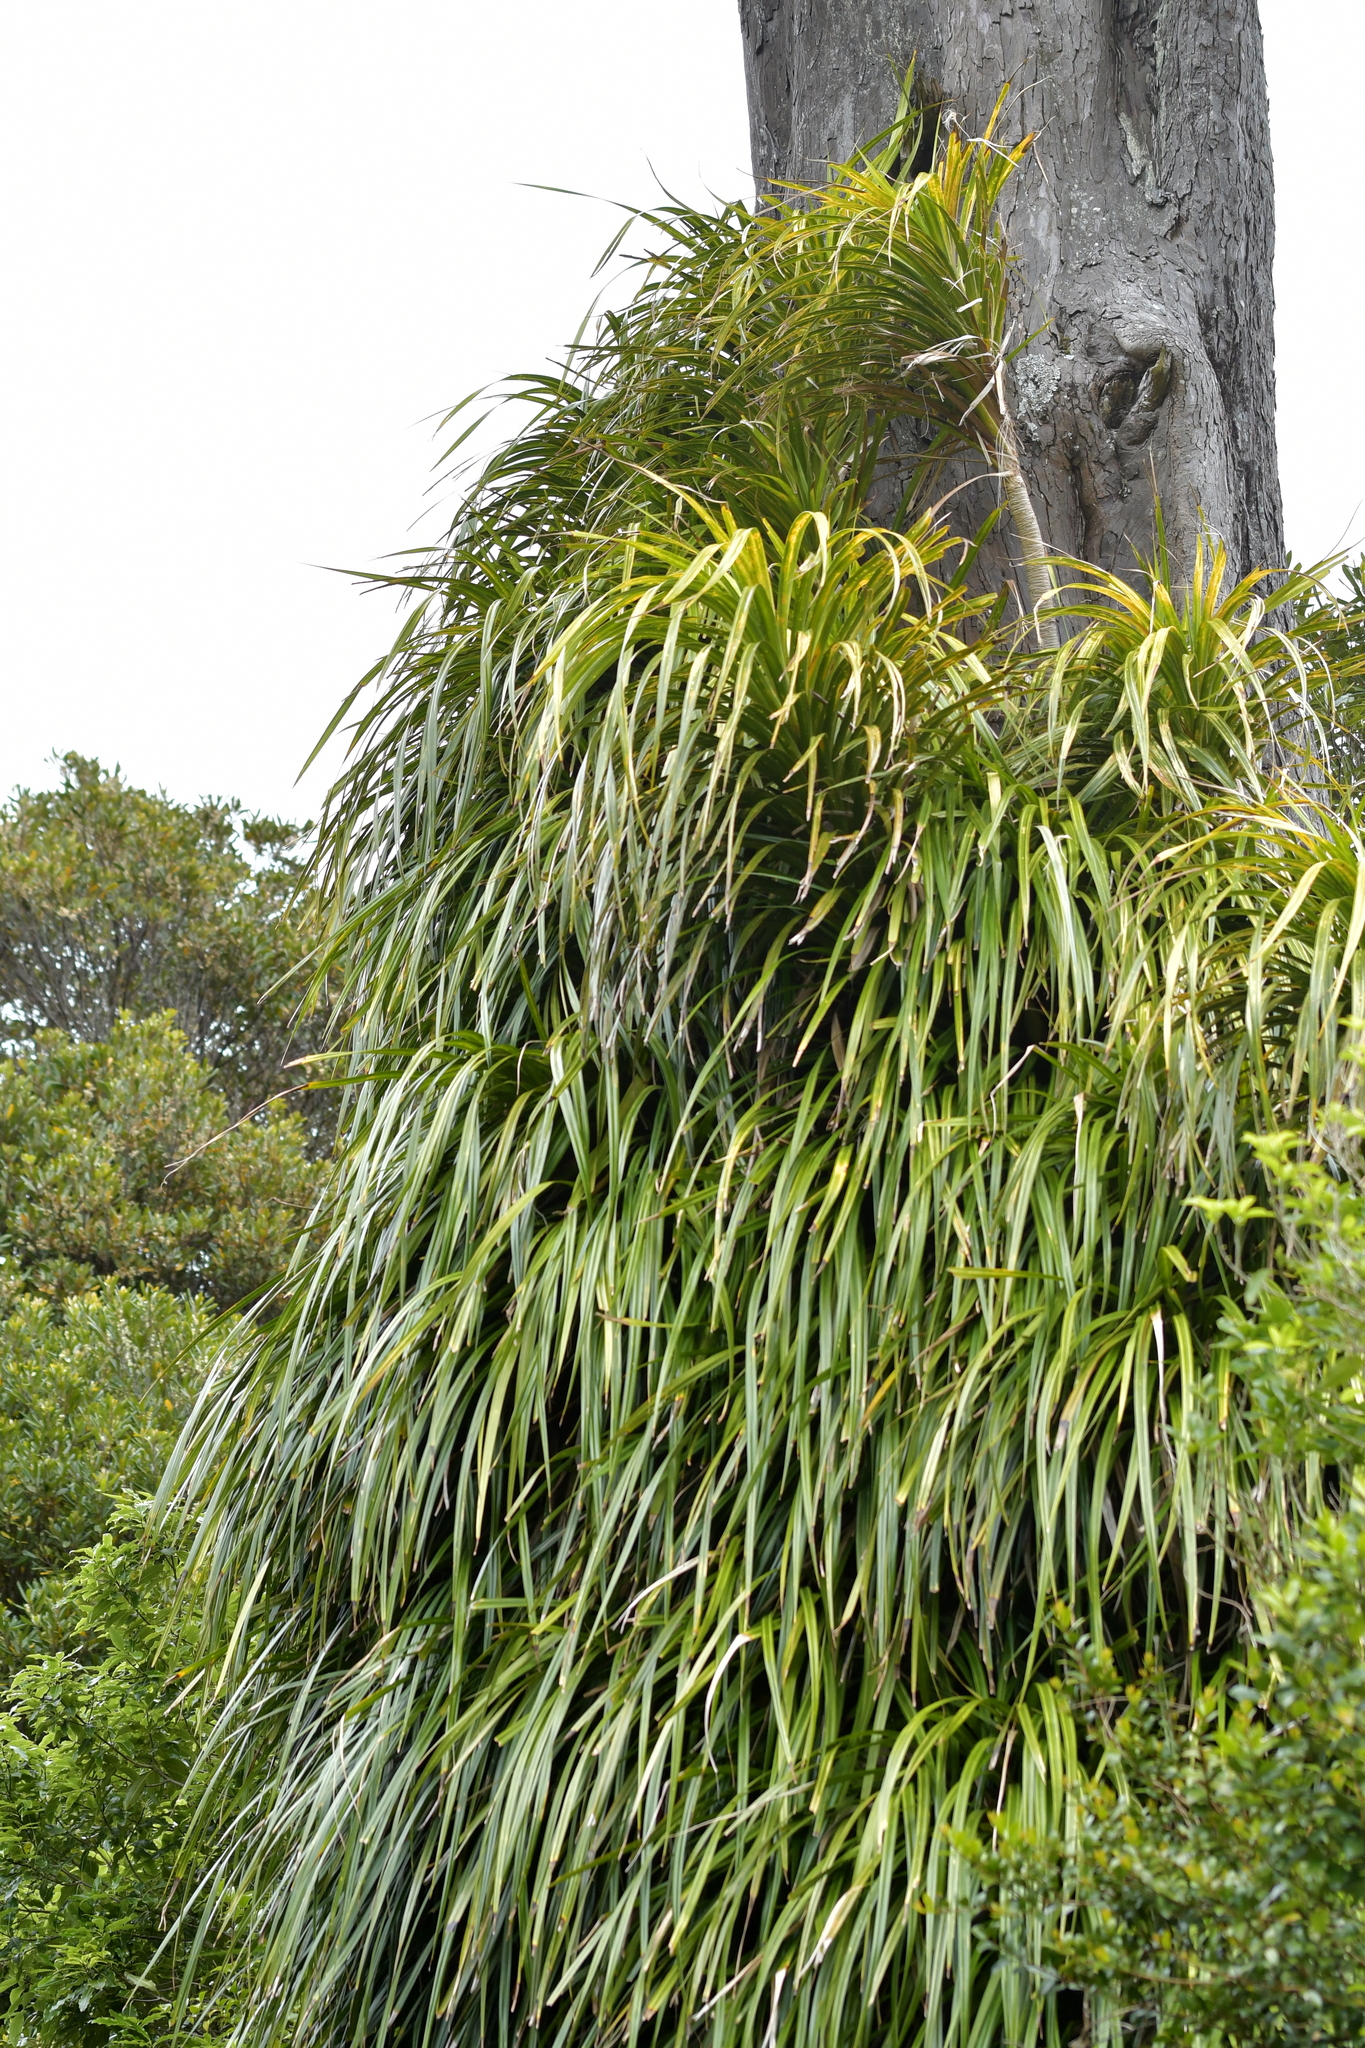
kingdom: Plantae
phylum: Tracheophyta
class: Liliopsida
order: Pandanales
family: Pandanaceae
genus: Freycinetia
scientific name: Freycinetia banksii
